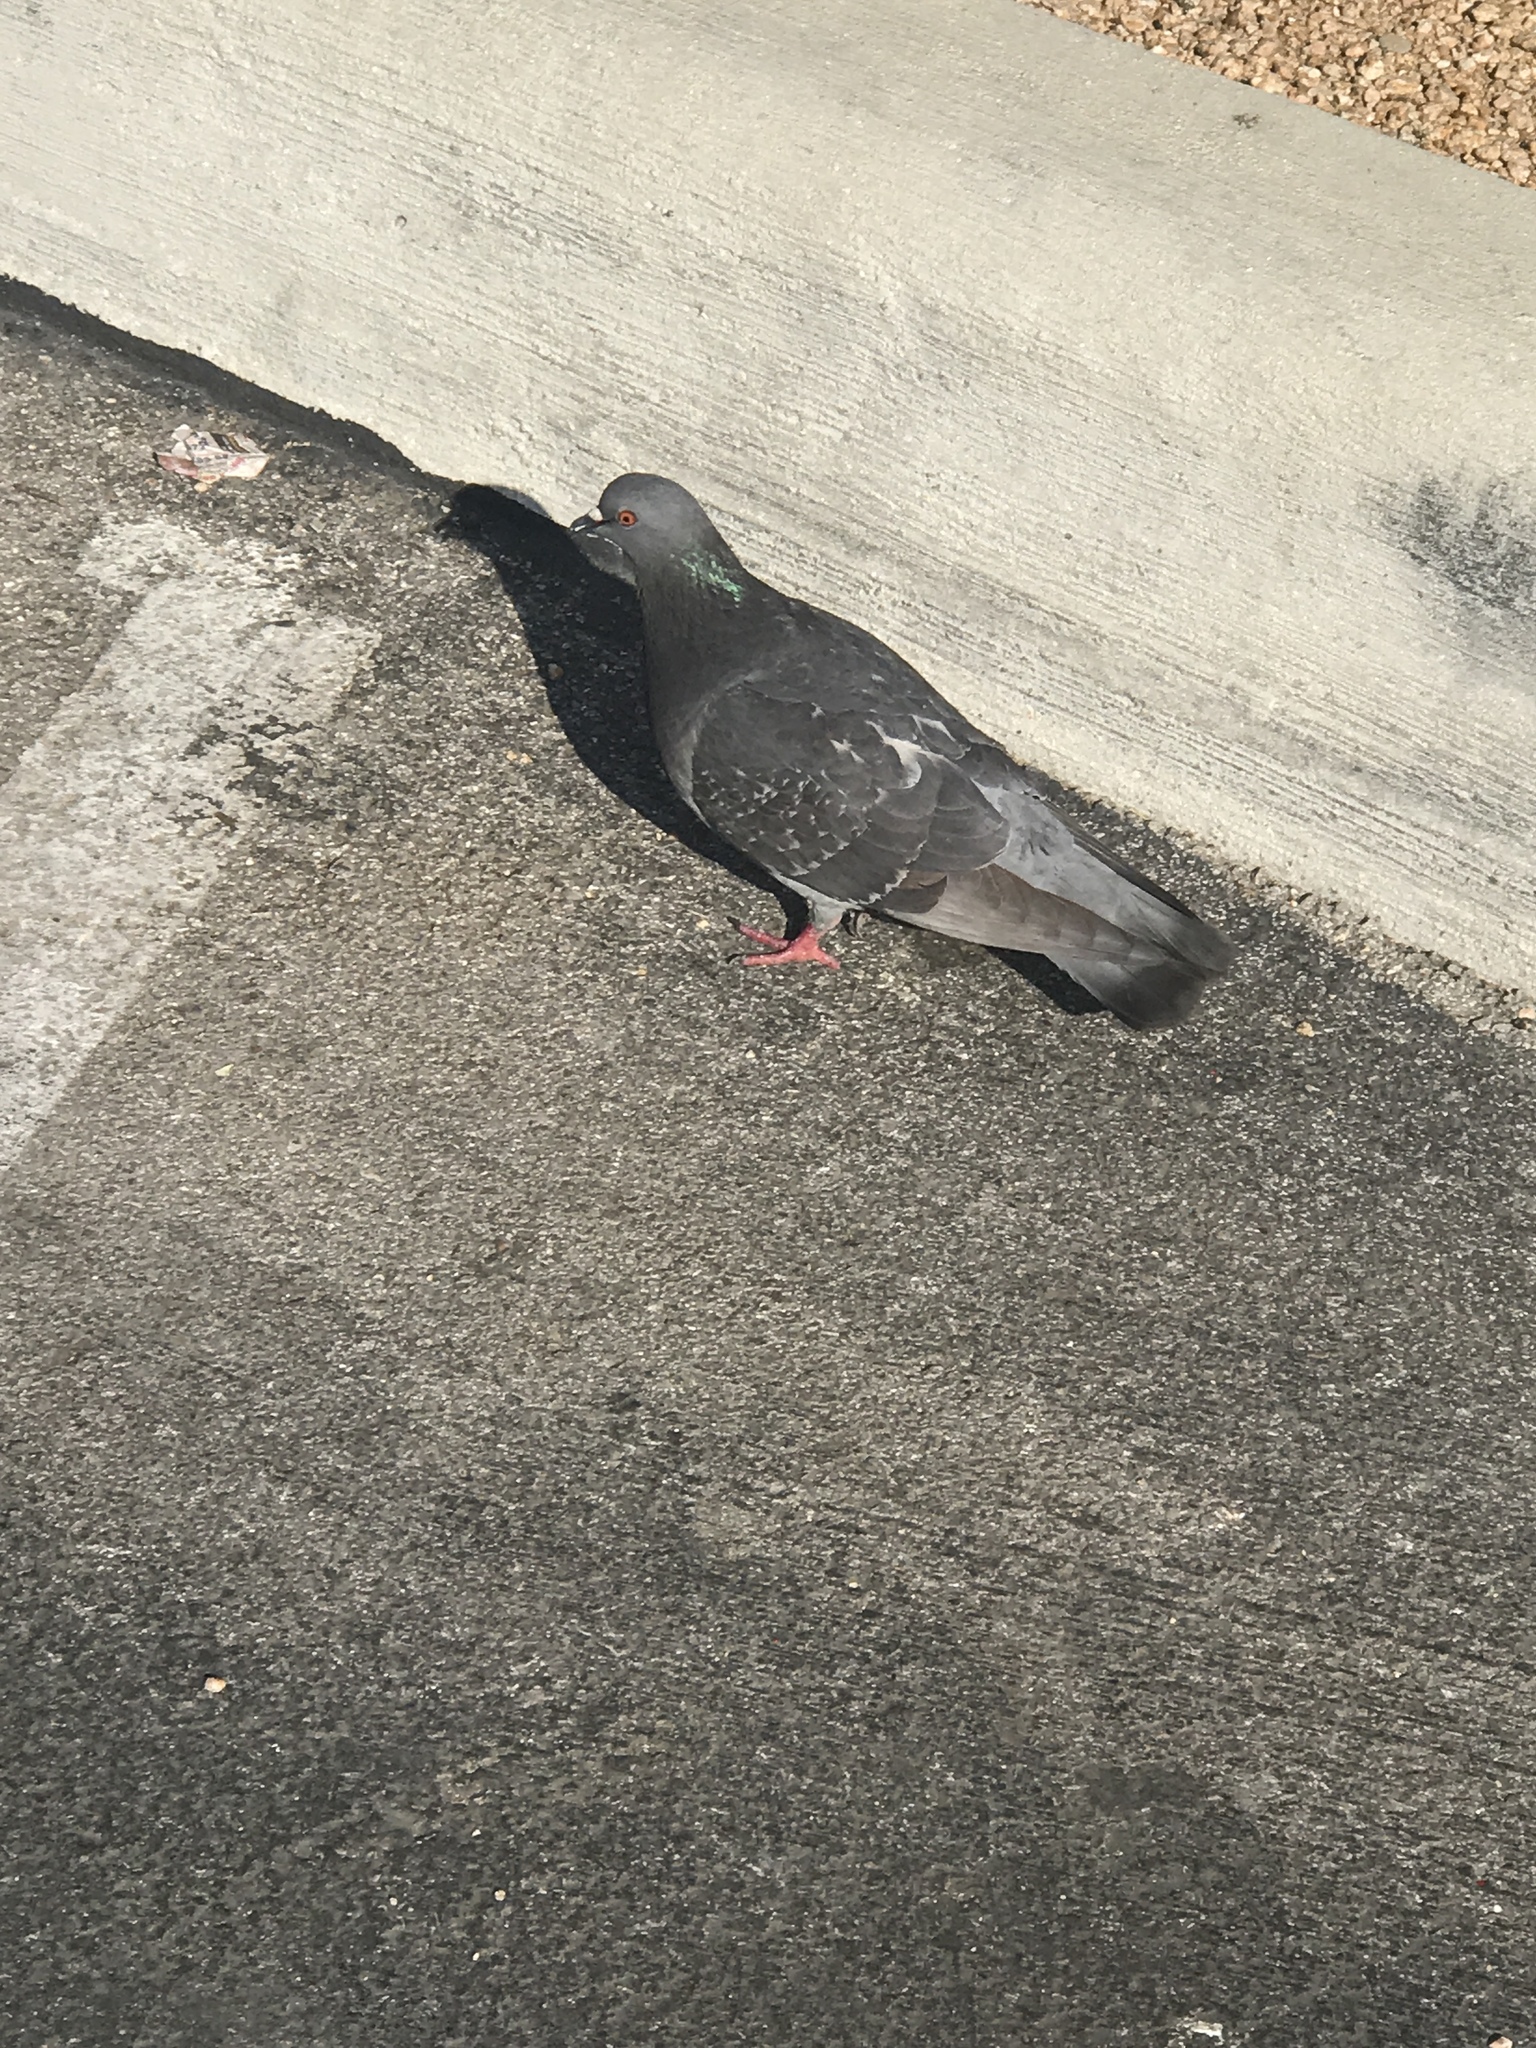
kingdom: Animalia
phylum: Chordata
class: Aves
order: Columbiformes
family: Columbidae
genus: Columba
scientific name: Columba livia
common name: Rock pigeon
